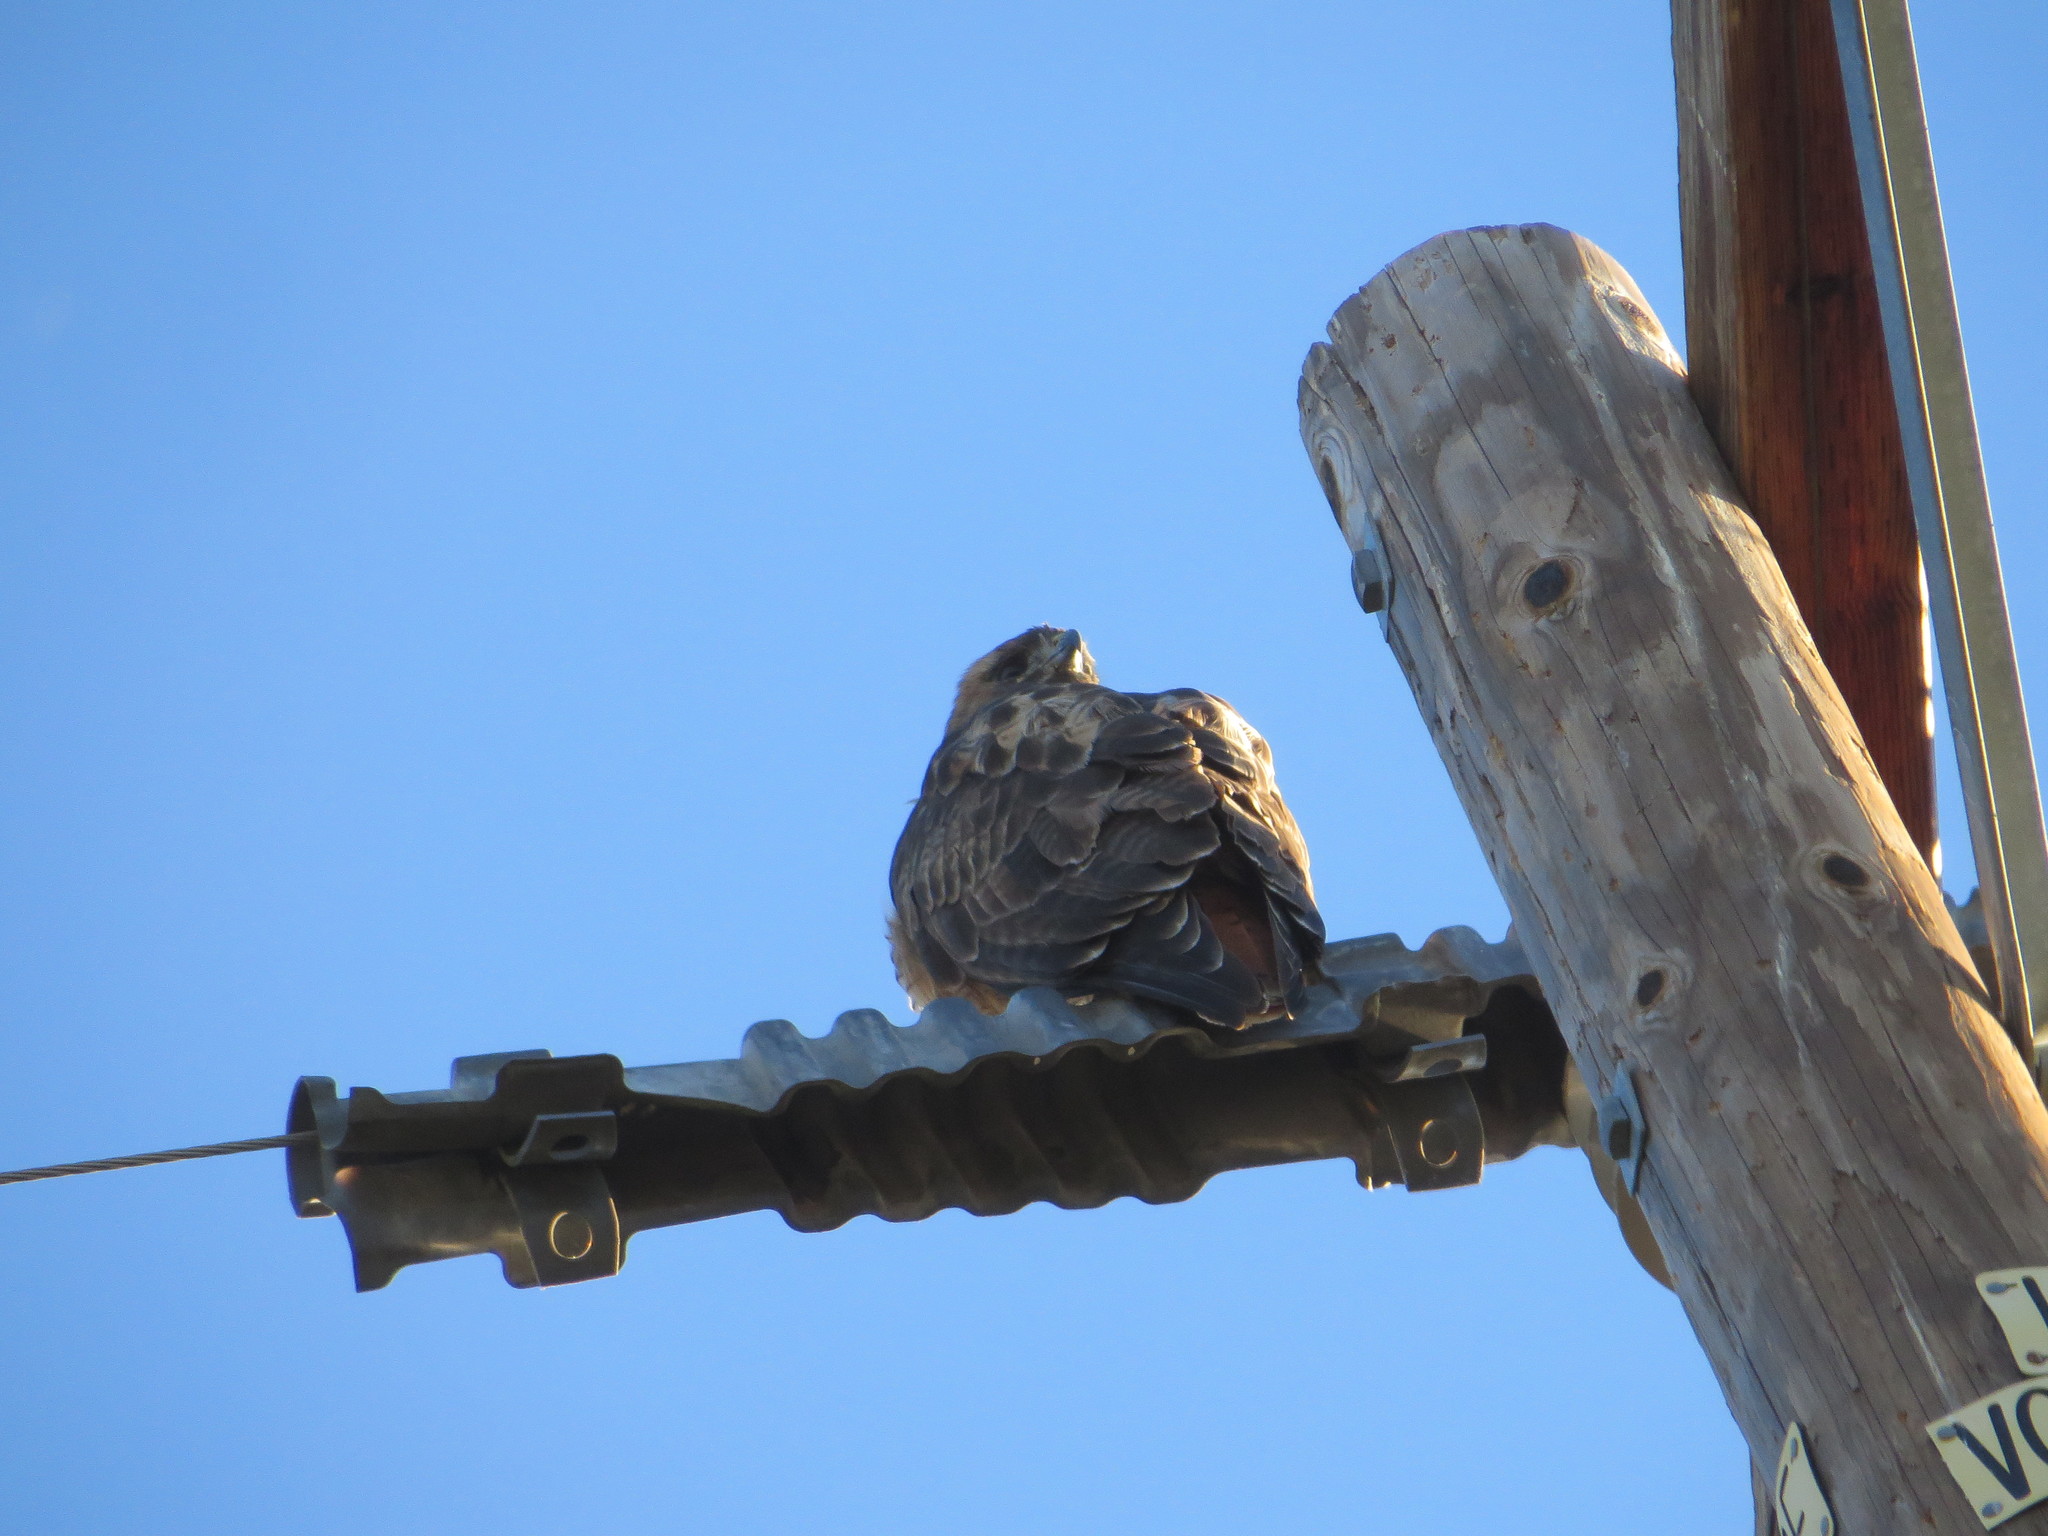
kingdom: Animalia
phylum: Chordata
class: Aves
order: Accipitriformes
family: Accipitridae
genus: Buteo
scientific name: Buteo jamaicensis
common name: Red-tailed hawk
